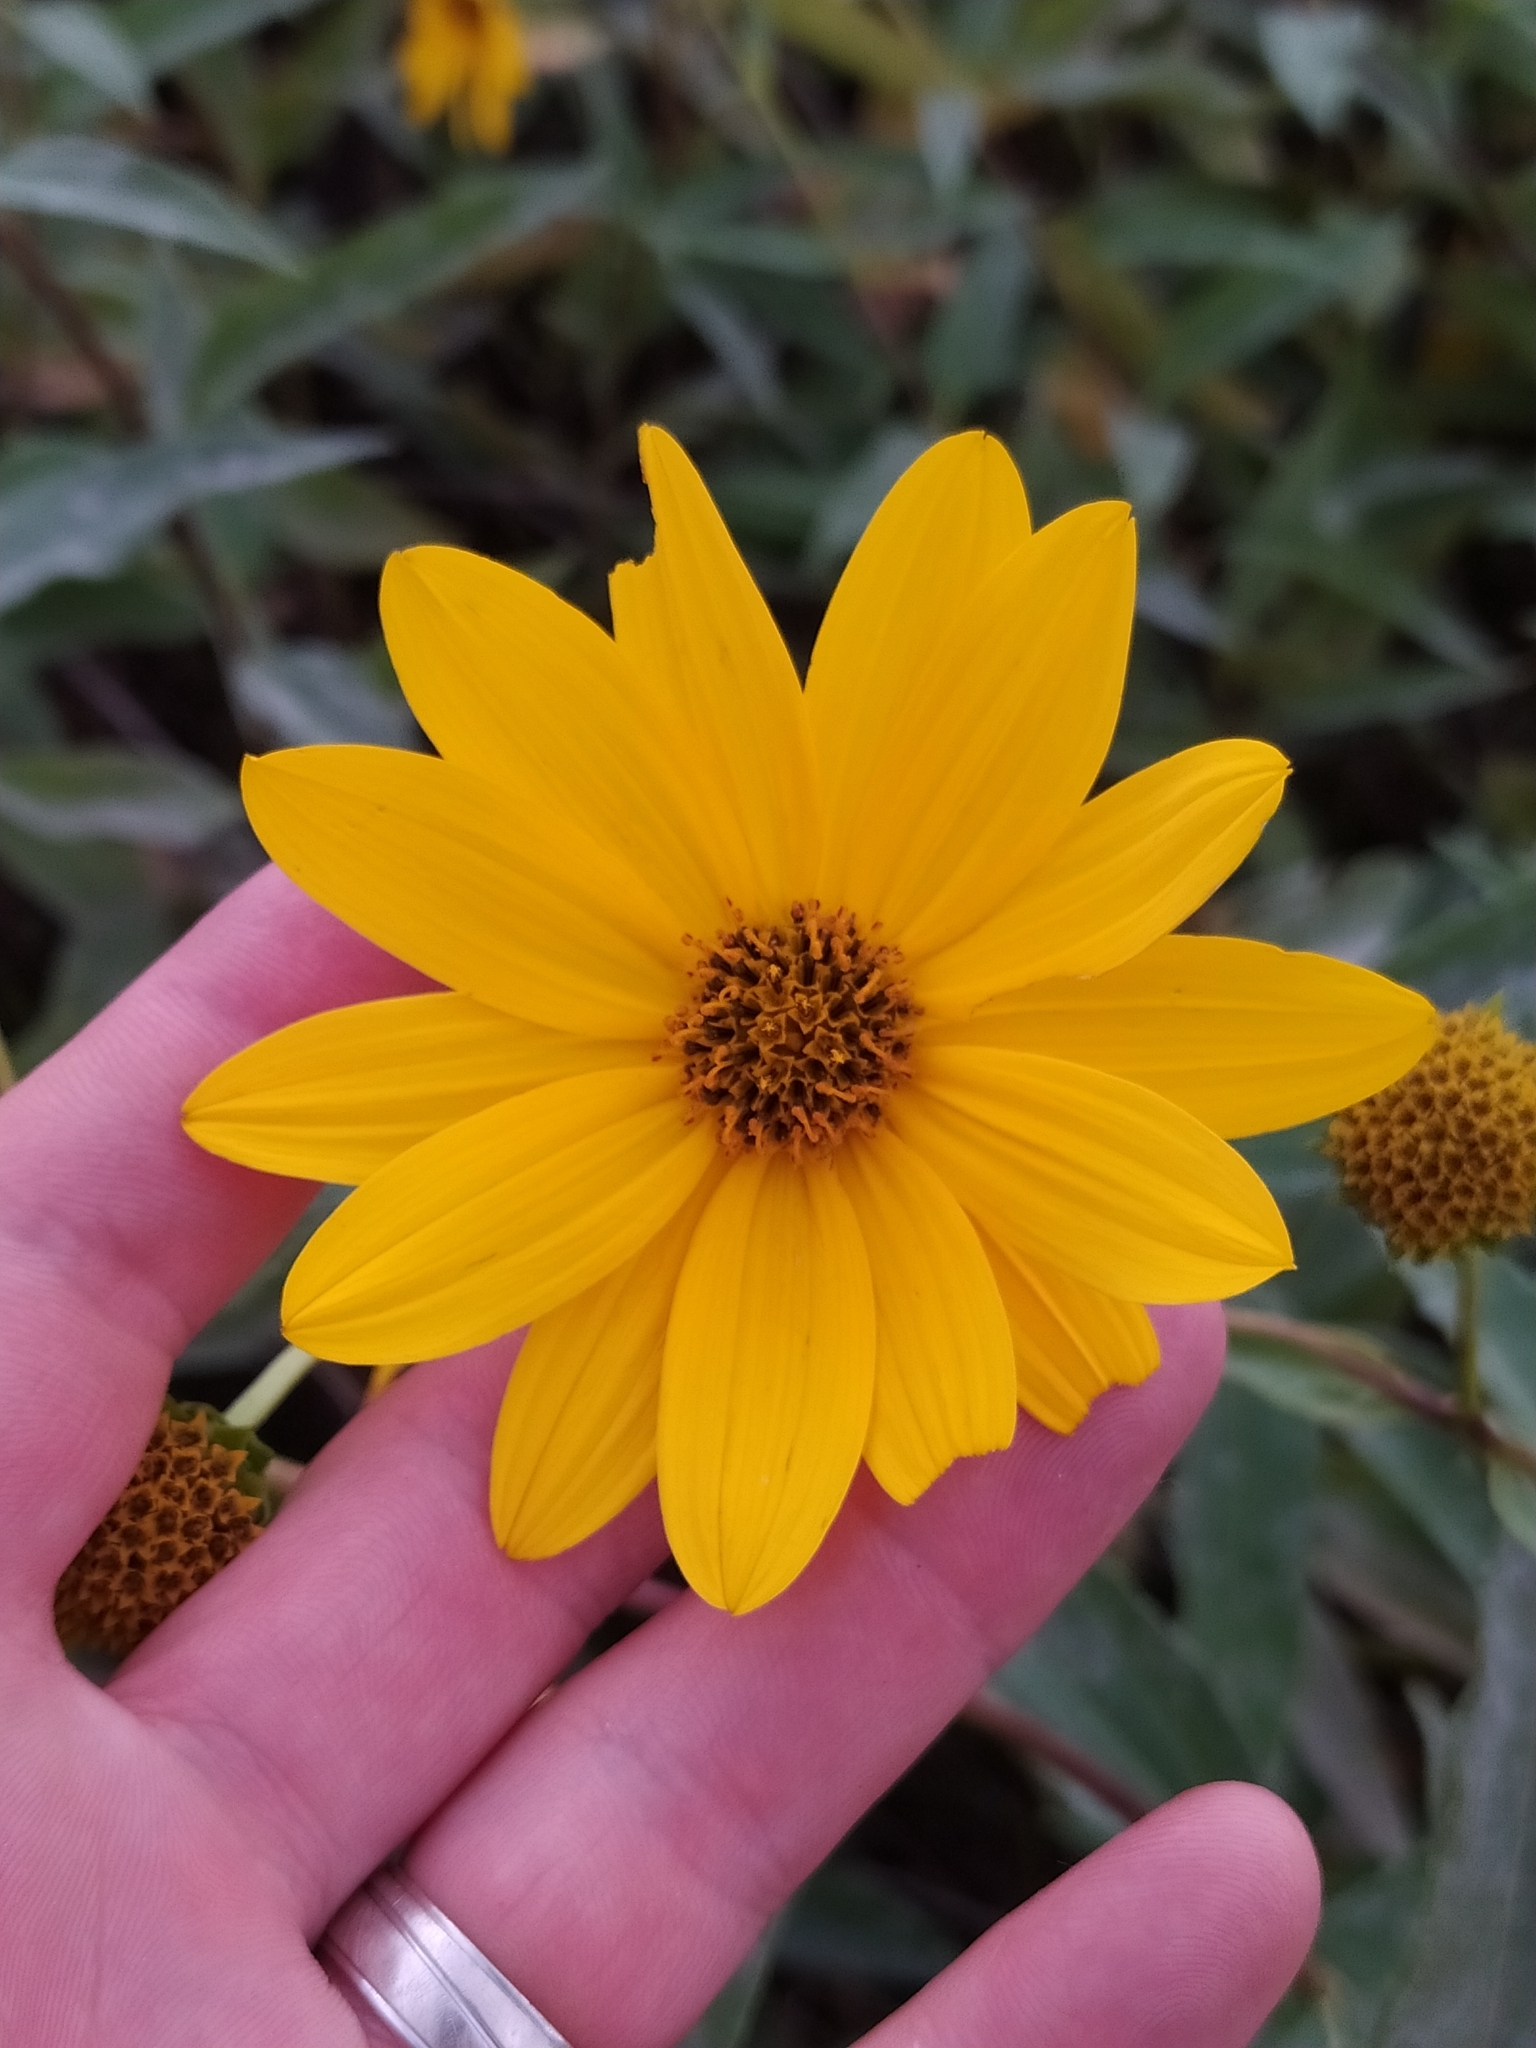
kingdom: Plantae
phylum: Tracheophyta
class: Magnoliopsida
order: Asterales
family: Asteraceae
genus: Helianthus
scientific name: Helianthus tuberosus
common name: Jerusalem artichoke
